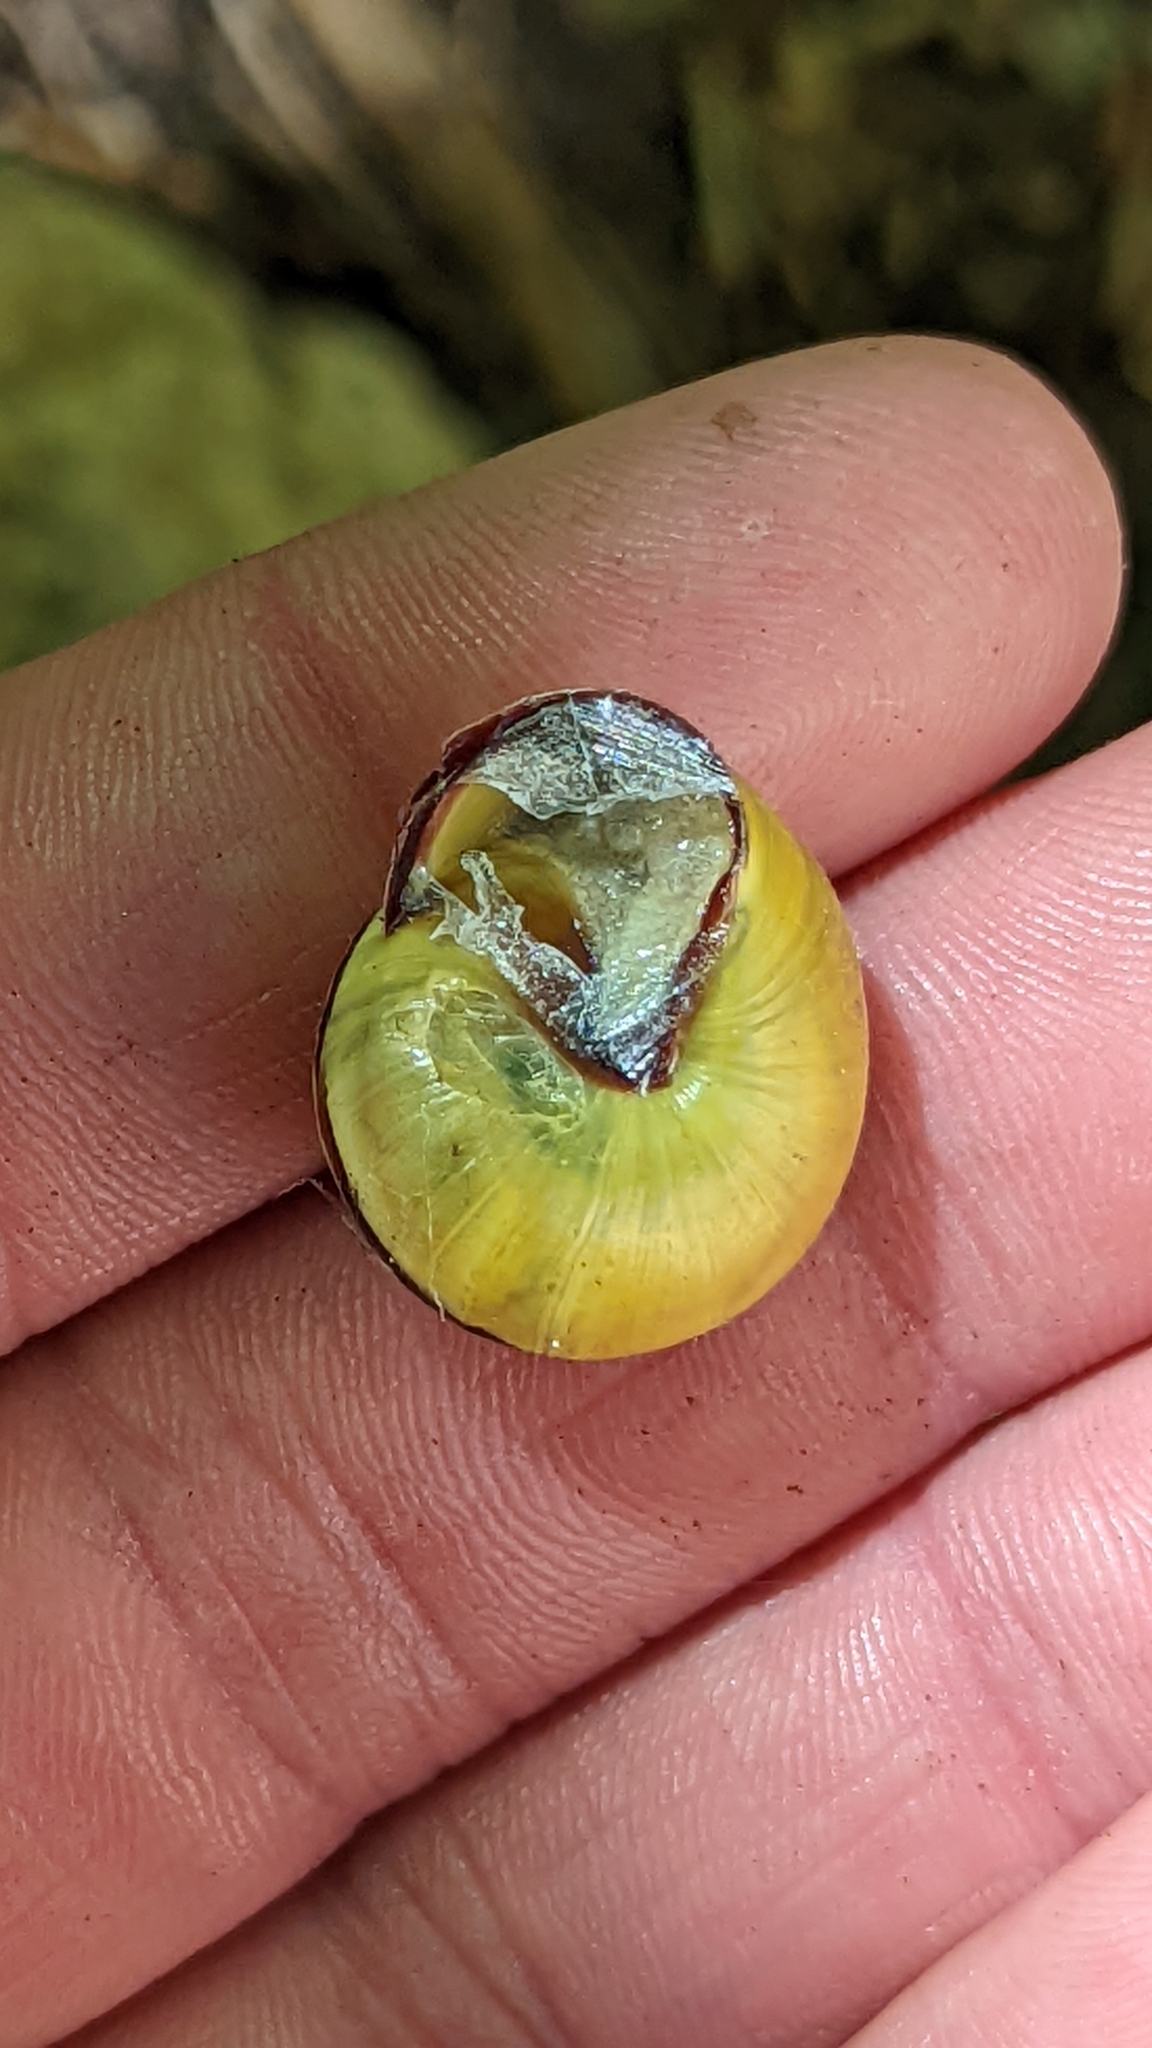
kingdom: Animalia
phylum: Mollusca
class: Gastropoda
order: Stylommatophora
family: Helicidae
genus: Cepaea
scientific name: Cepaea nemoralis
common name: Grovesnail
